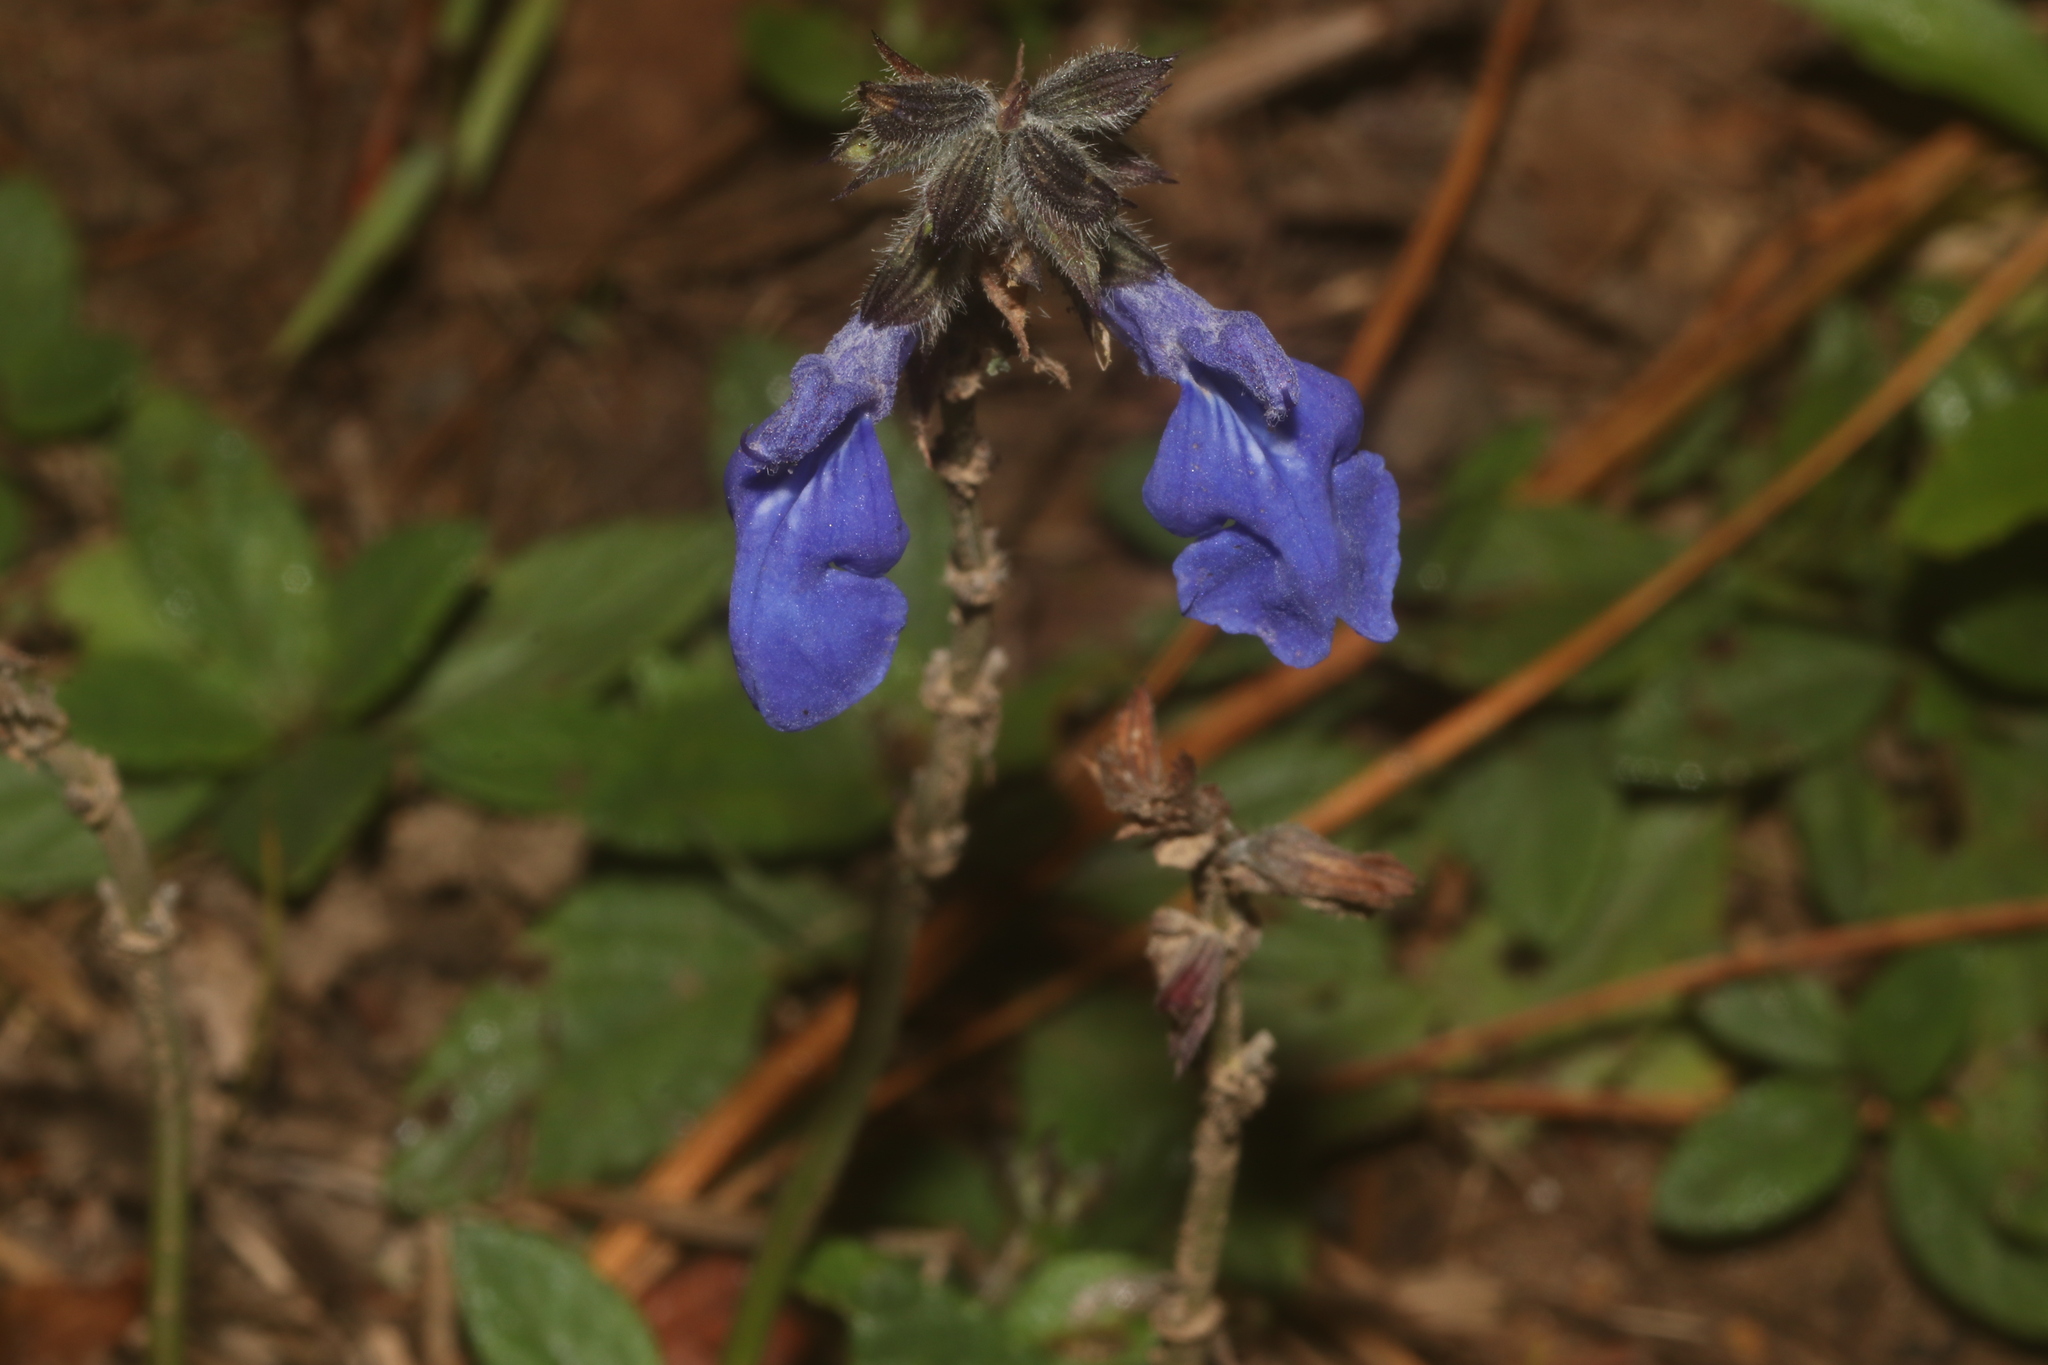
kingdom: Plantae
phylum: Tracheophyta
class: Magnoliopsida
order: Lamiales
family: Lamiaceae
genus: Salvia
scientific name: Salvia prunelloides
